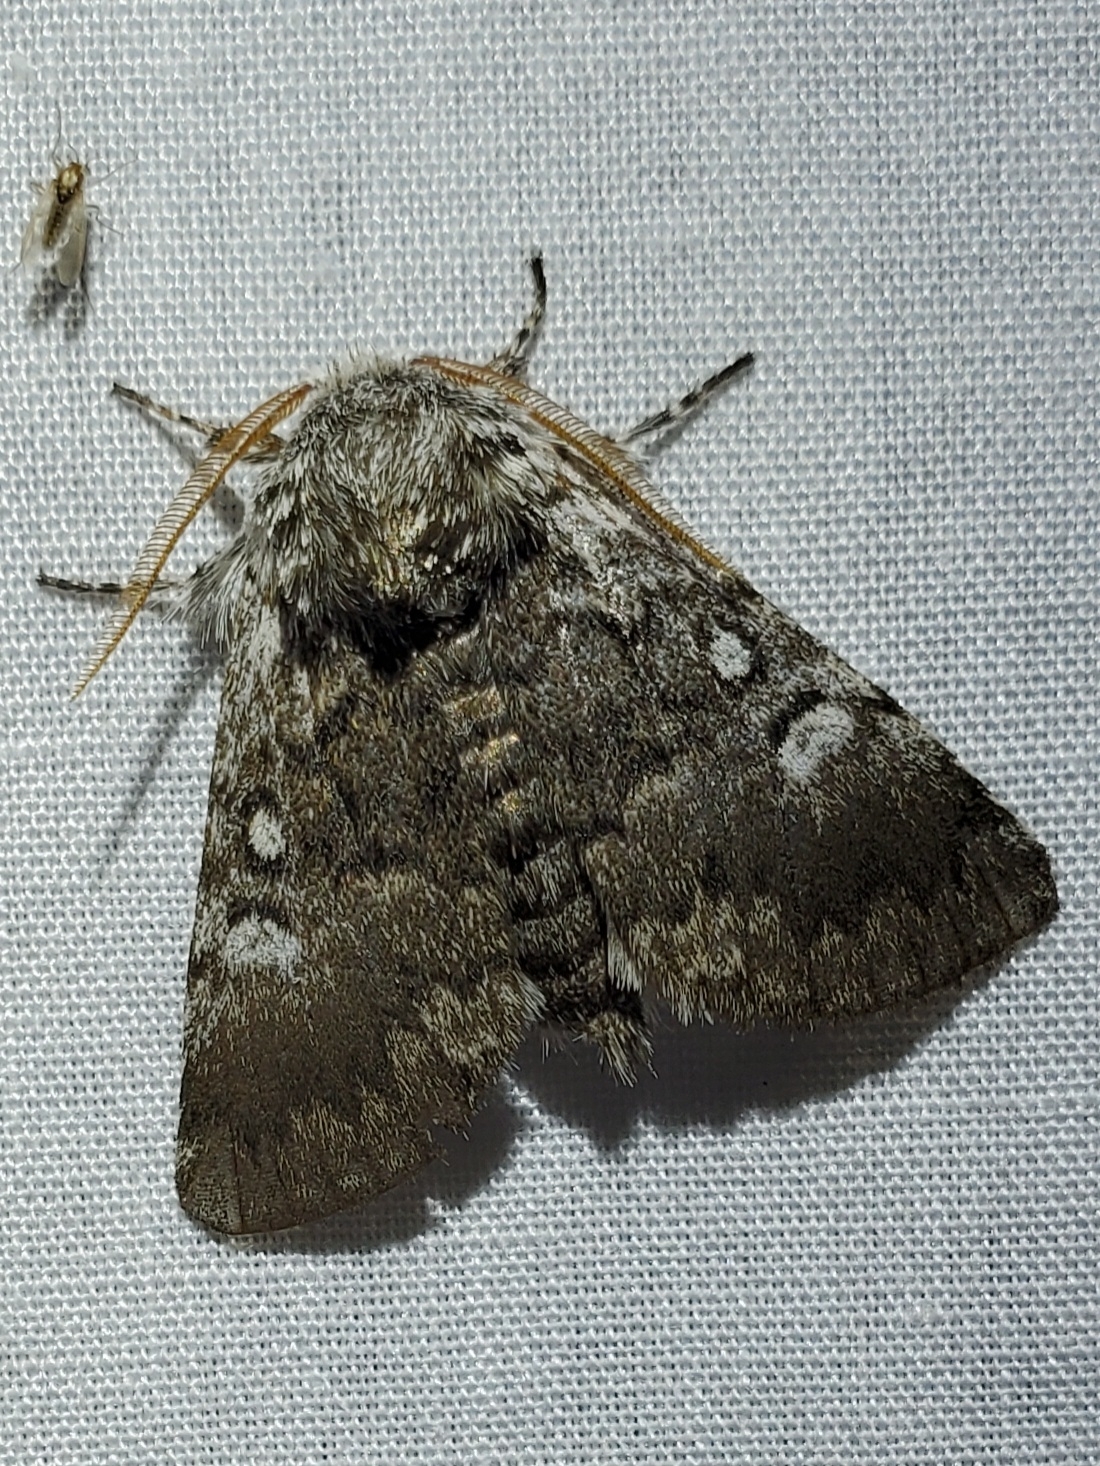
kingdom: Animalia
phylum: Arthropoda
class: Insecta
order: Lepidoptera
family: Noctuidae
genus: Colocasia
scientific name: Colocasia propinquilinea
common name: Close-banded demas
